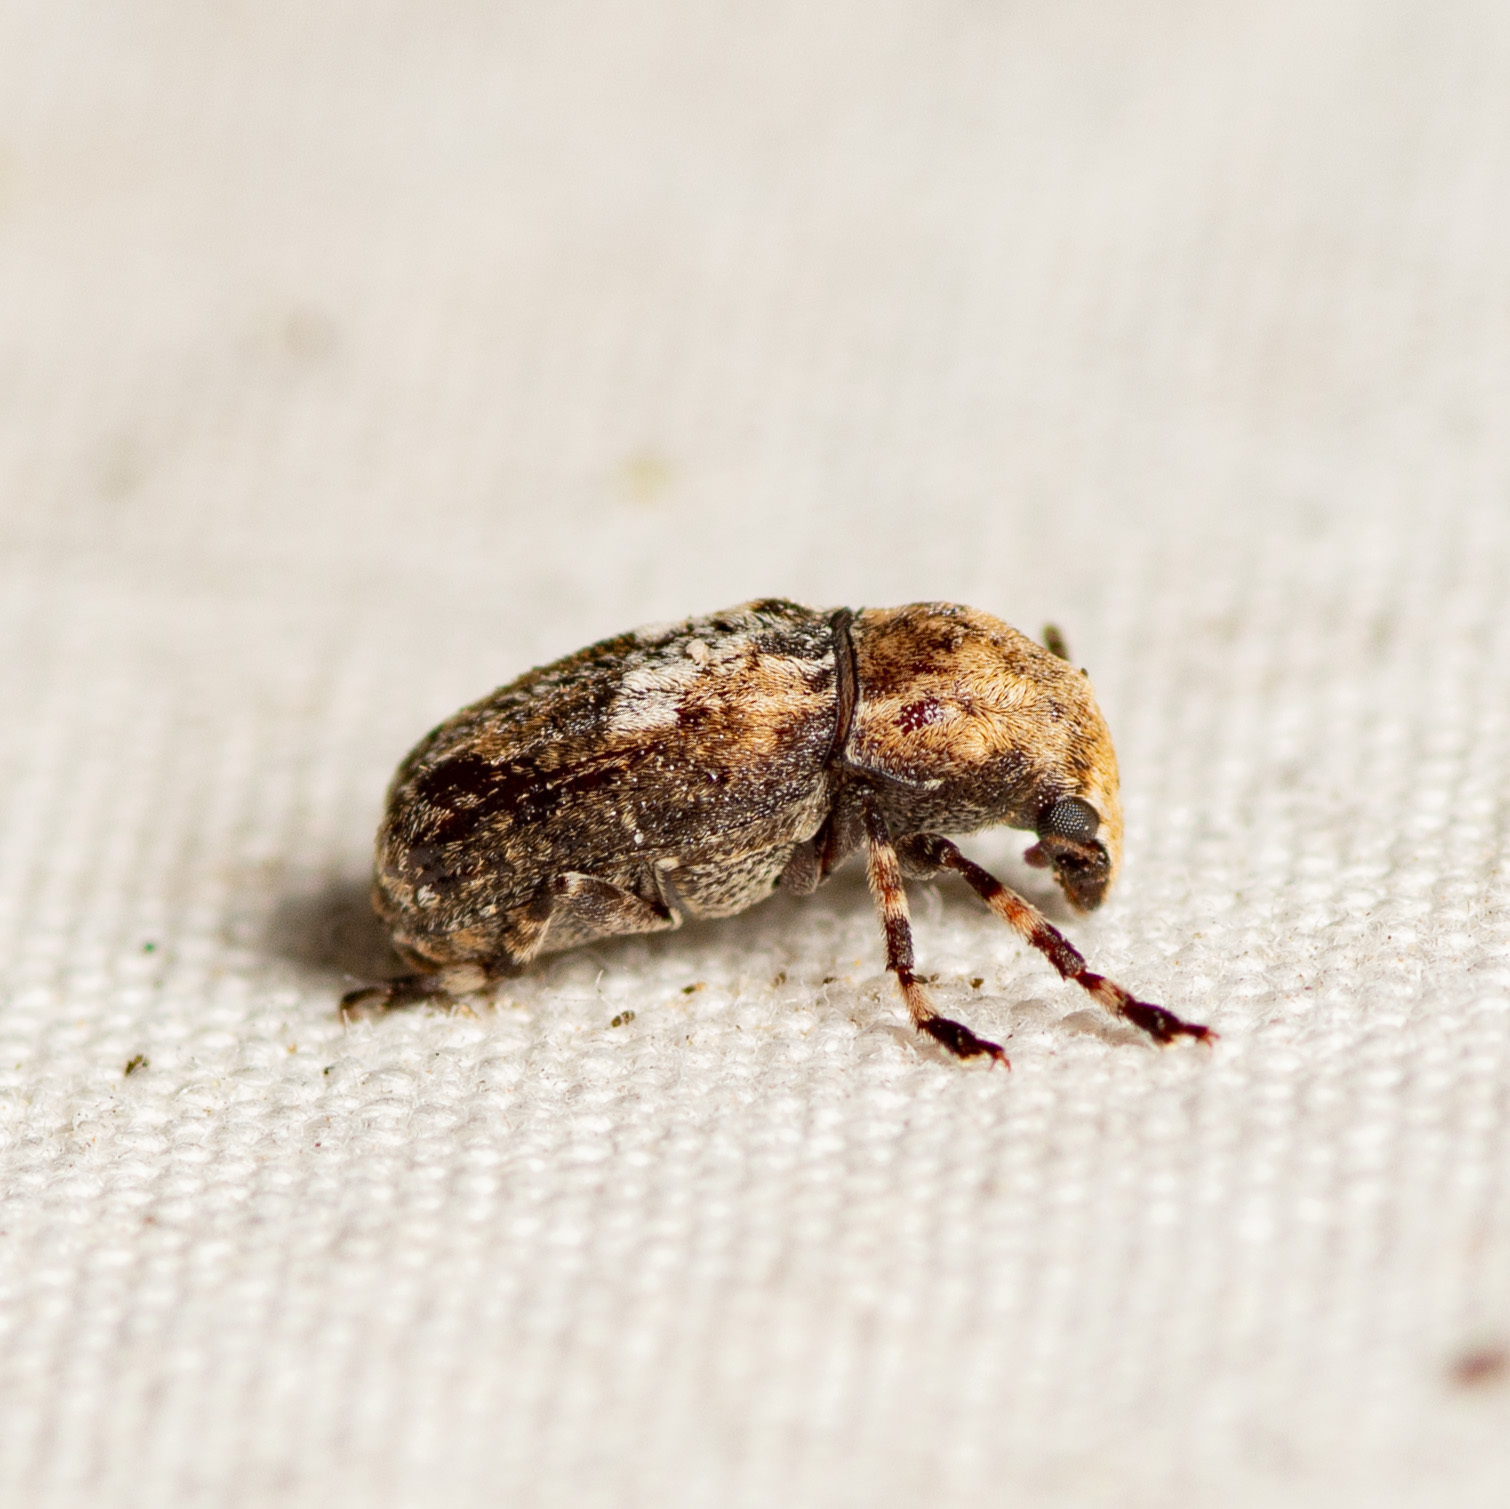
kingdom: Animalia
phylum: Arthropoda
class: Insecta
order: Coleoptera
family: Anthribidae
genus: Euparius
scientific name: Euparius marmoreus
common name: Marbled fungus weevil
